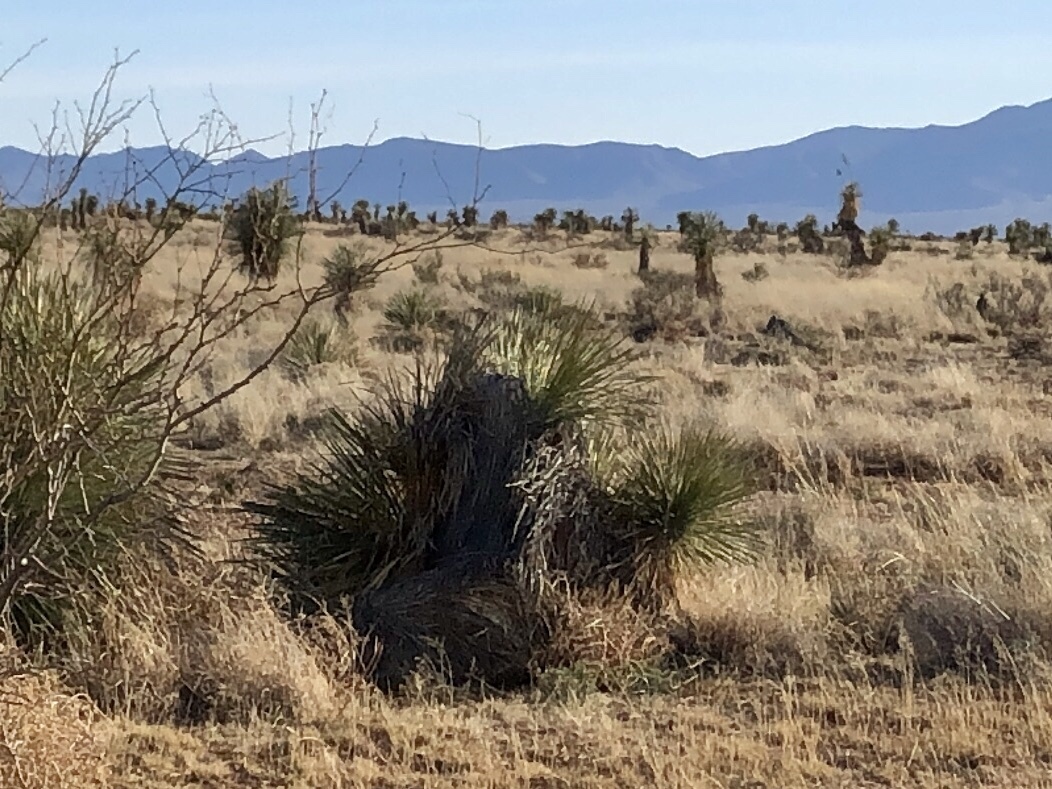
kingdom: Plantae
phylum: Tracheophyta
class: Liliopsida
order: Asparagales
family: Asparagaceae
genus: Yucca
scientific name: Yucca elata
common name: Palmella
